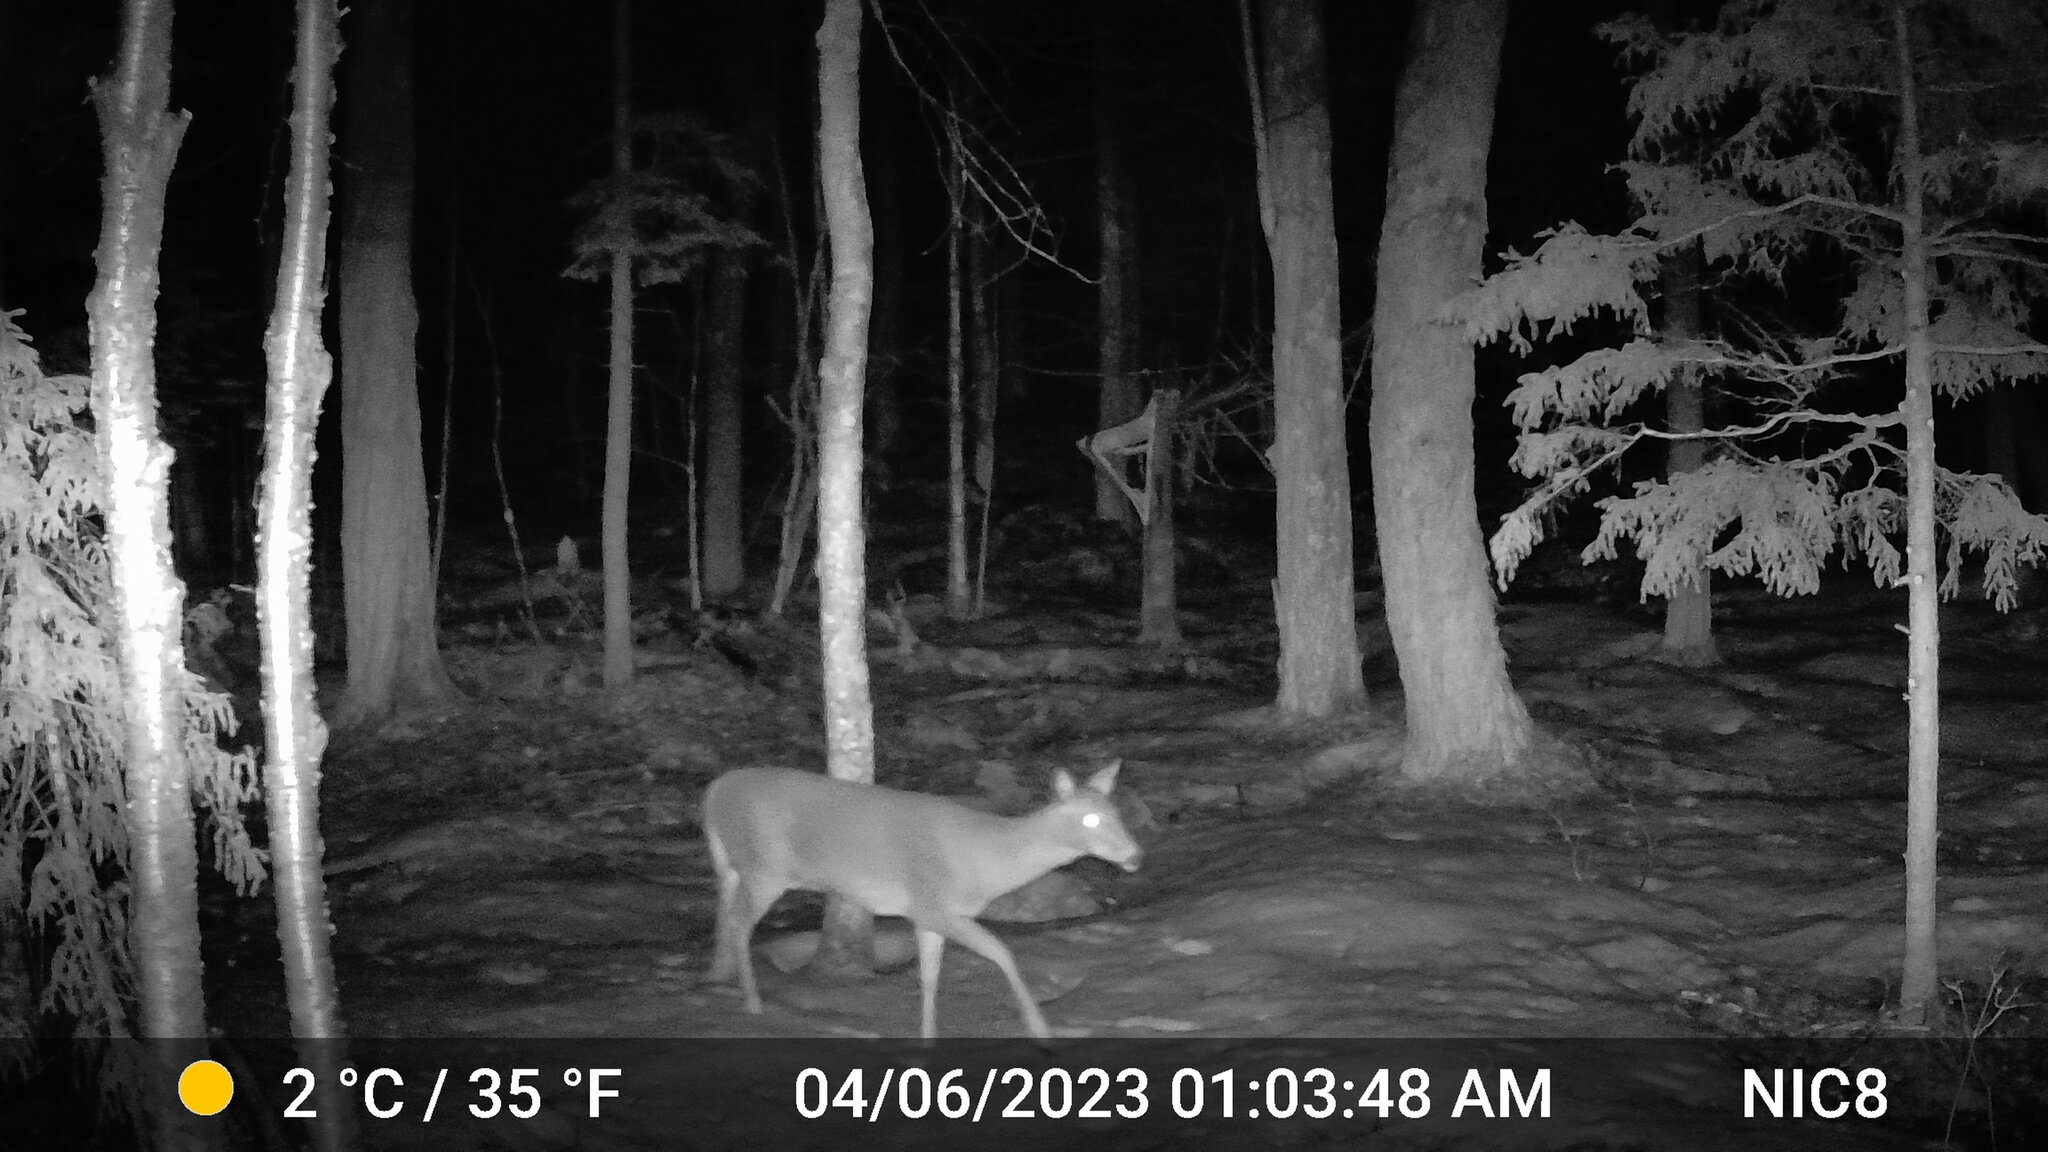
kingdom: Animalia
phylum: Chordata
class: Mammalia
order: Artiodactyla
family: Cervidae
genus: Odocoileus
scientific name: Odocoileus virginianus
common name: White-tailed deer
